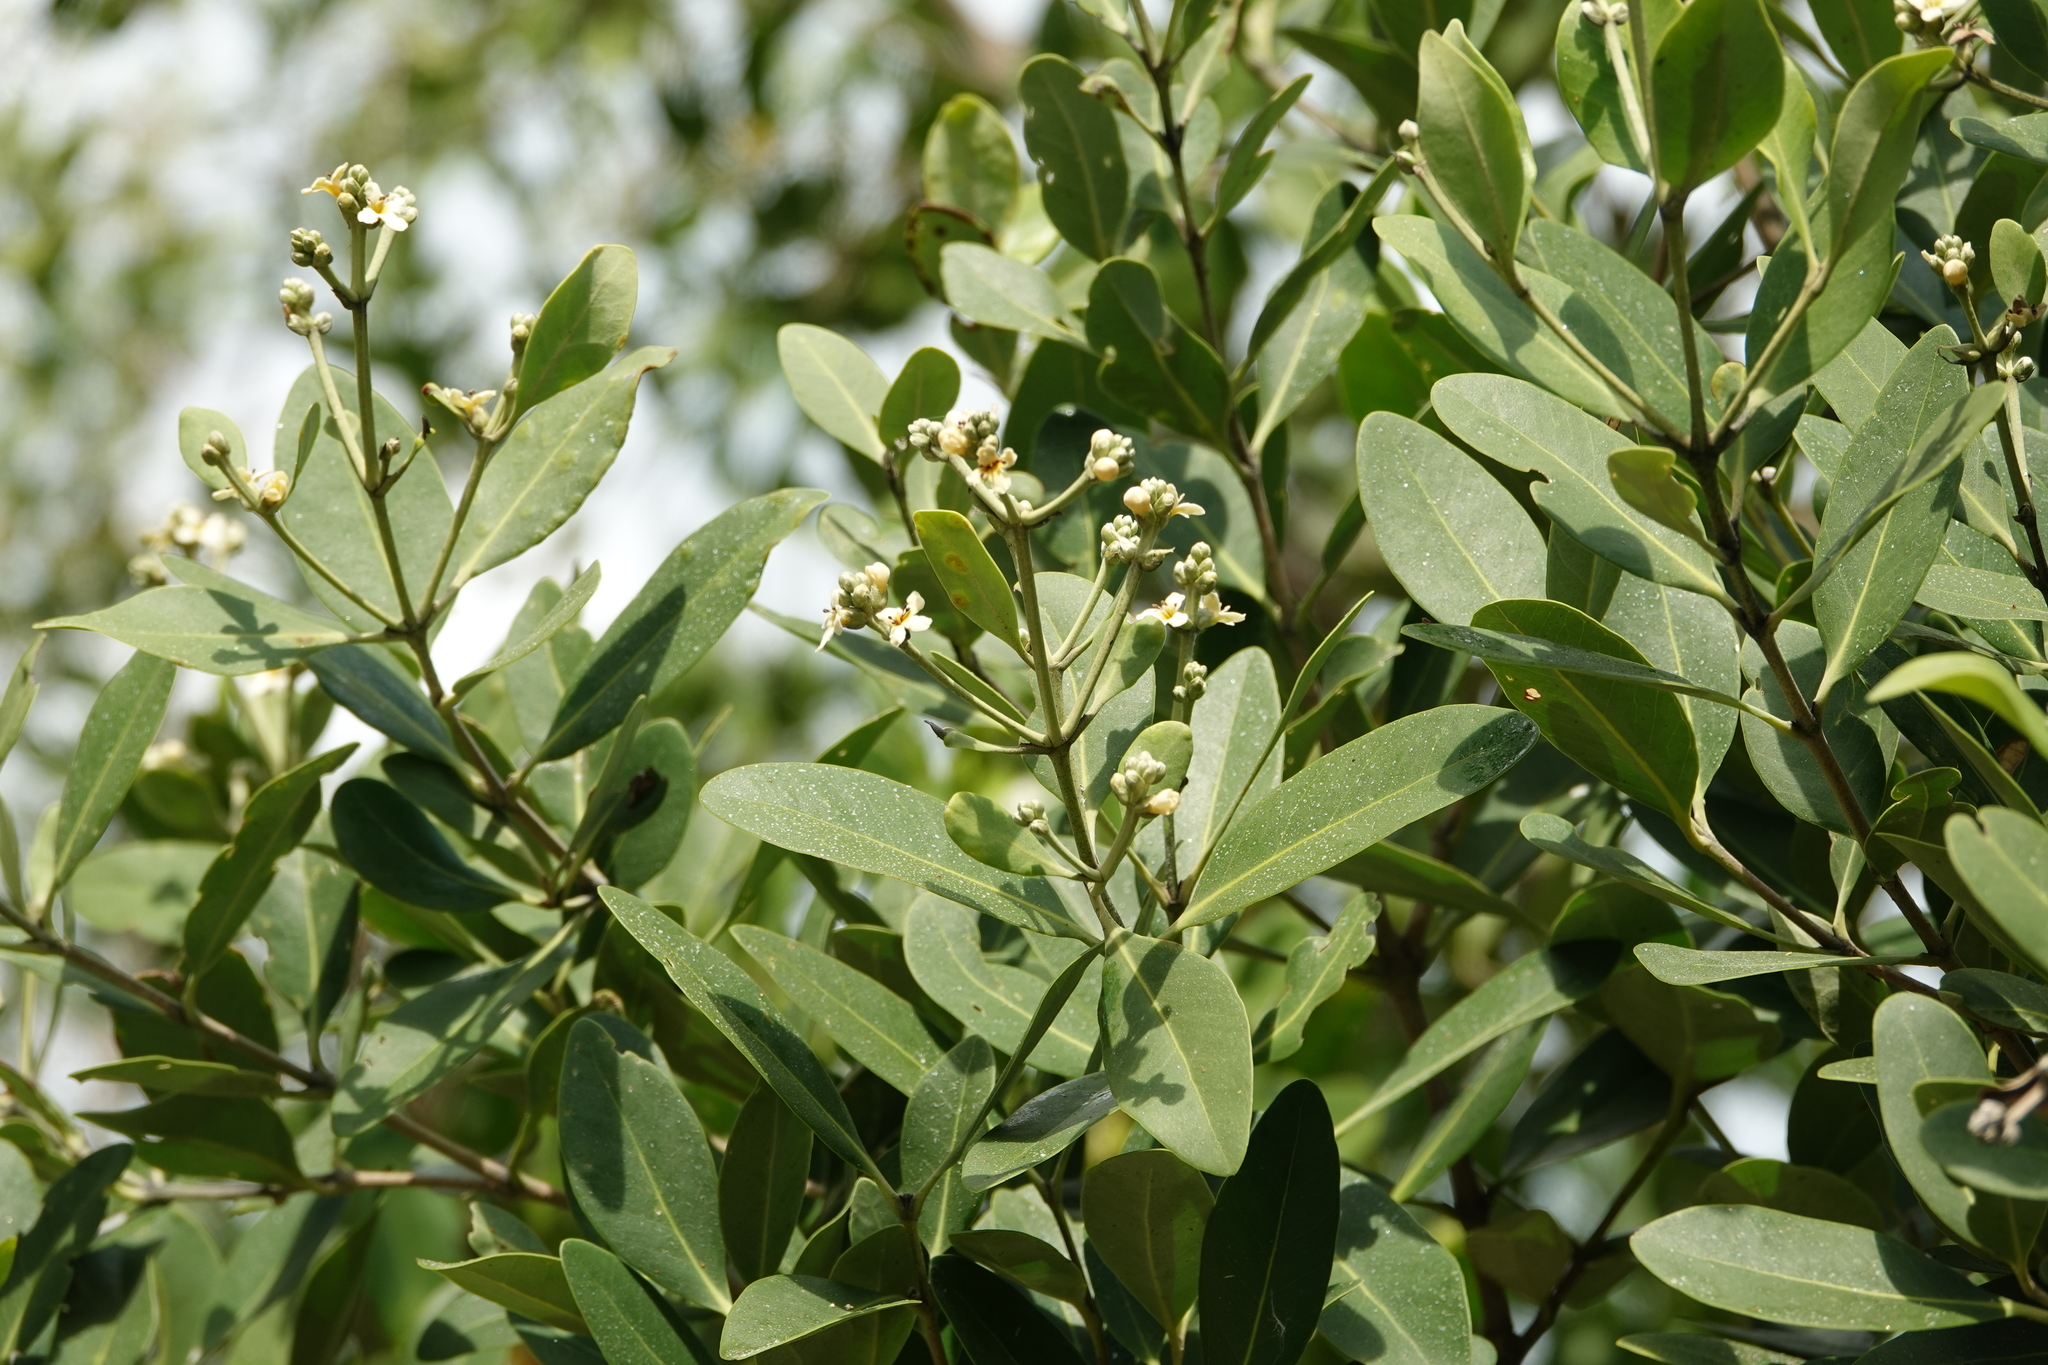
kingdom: Plantae
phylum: Tracheophyta
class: Magnoliopsida
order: Lamiales
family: Acanthaceae
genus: Avicennia
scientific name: Avicennia germinans
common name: Black mangrove
